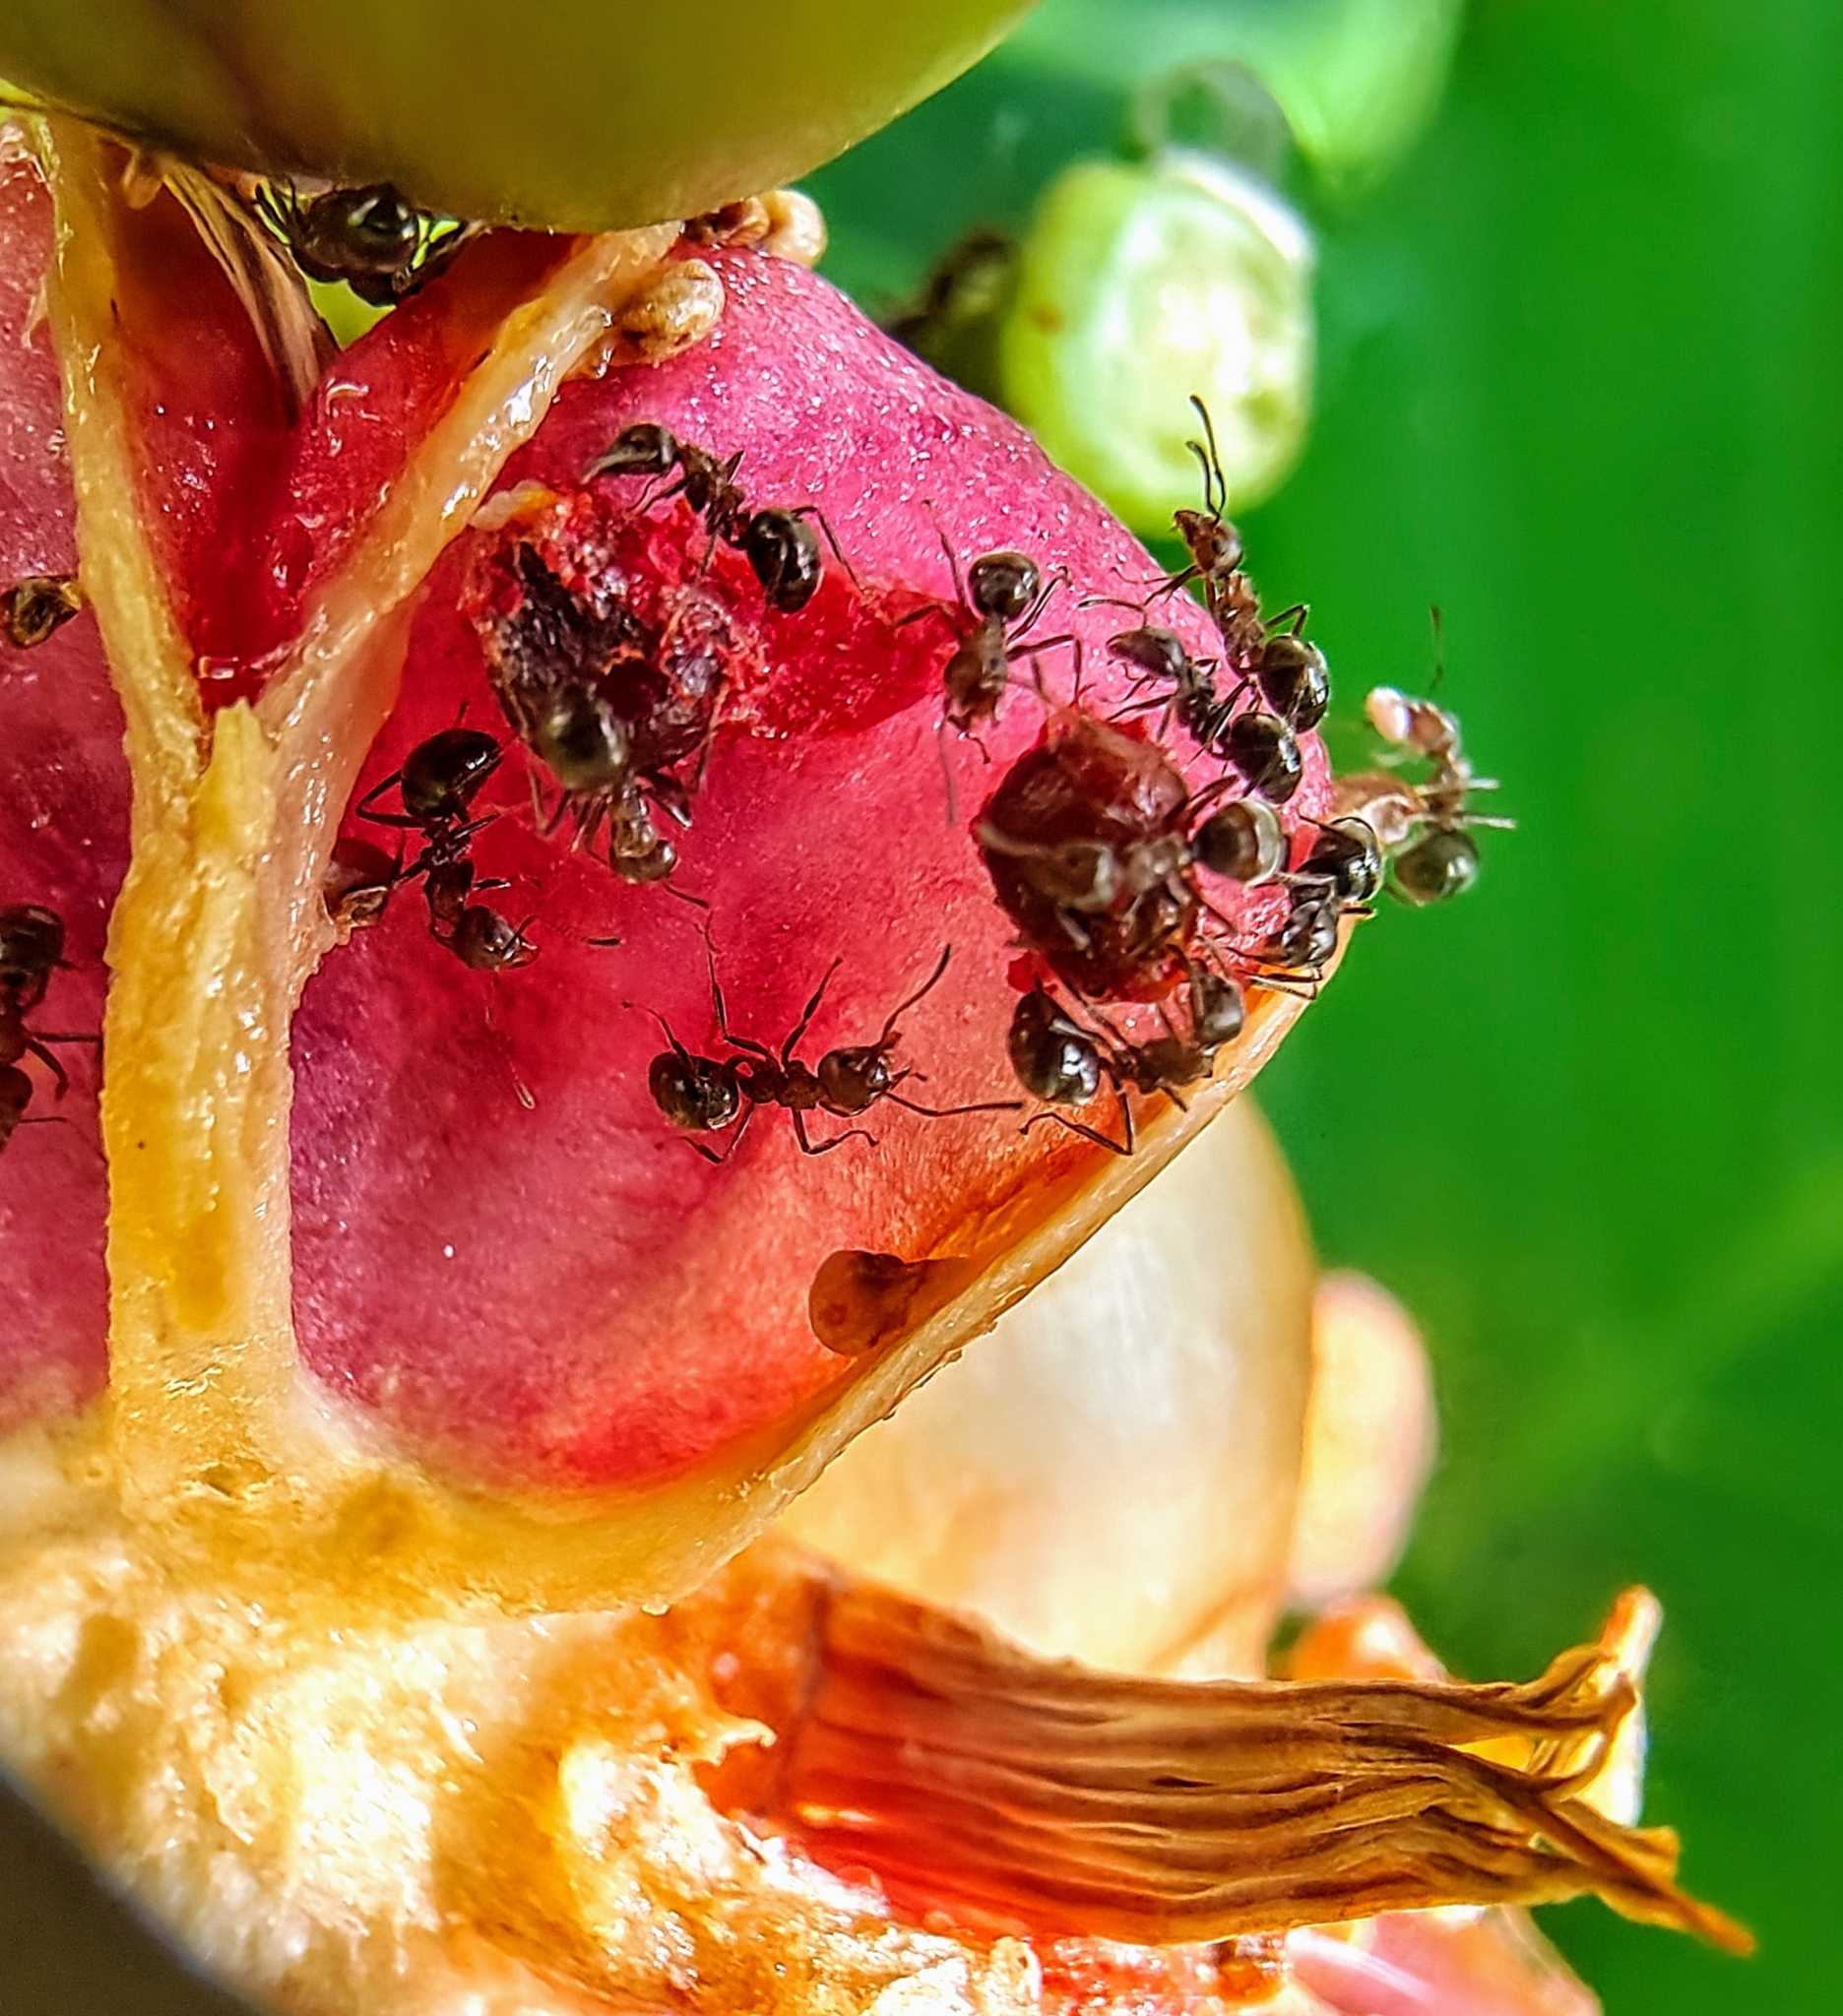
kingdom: Animalia
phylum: Arthropoda
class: Insecta
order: Hymenoptera
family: Formicidae
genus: Dolichoderus
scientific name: Dolichoderus thoracicus
